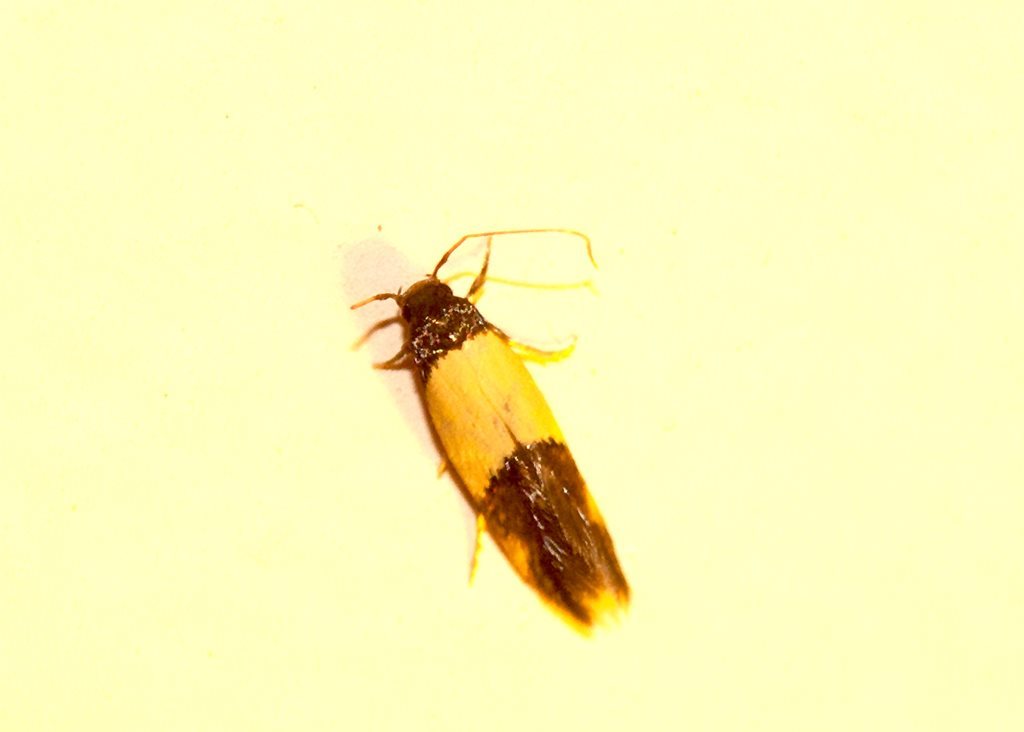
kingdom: Animalia
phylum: Arthropoda
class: Insecta
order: Lepidoptera
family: Tineidae
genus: Opogona
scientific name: Opogona papayae
